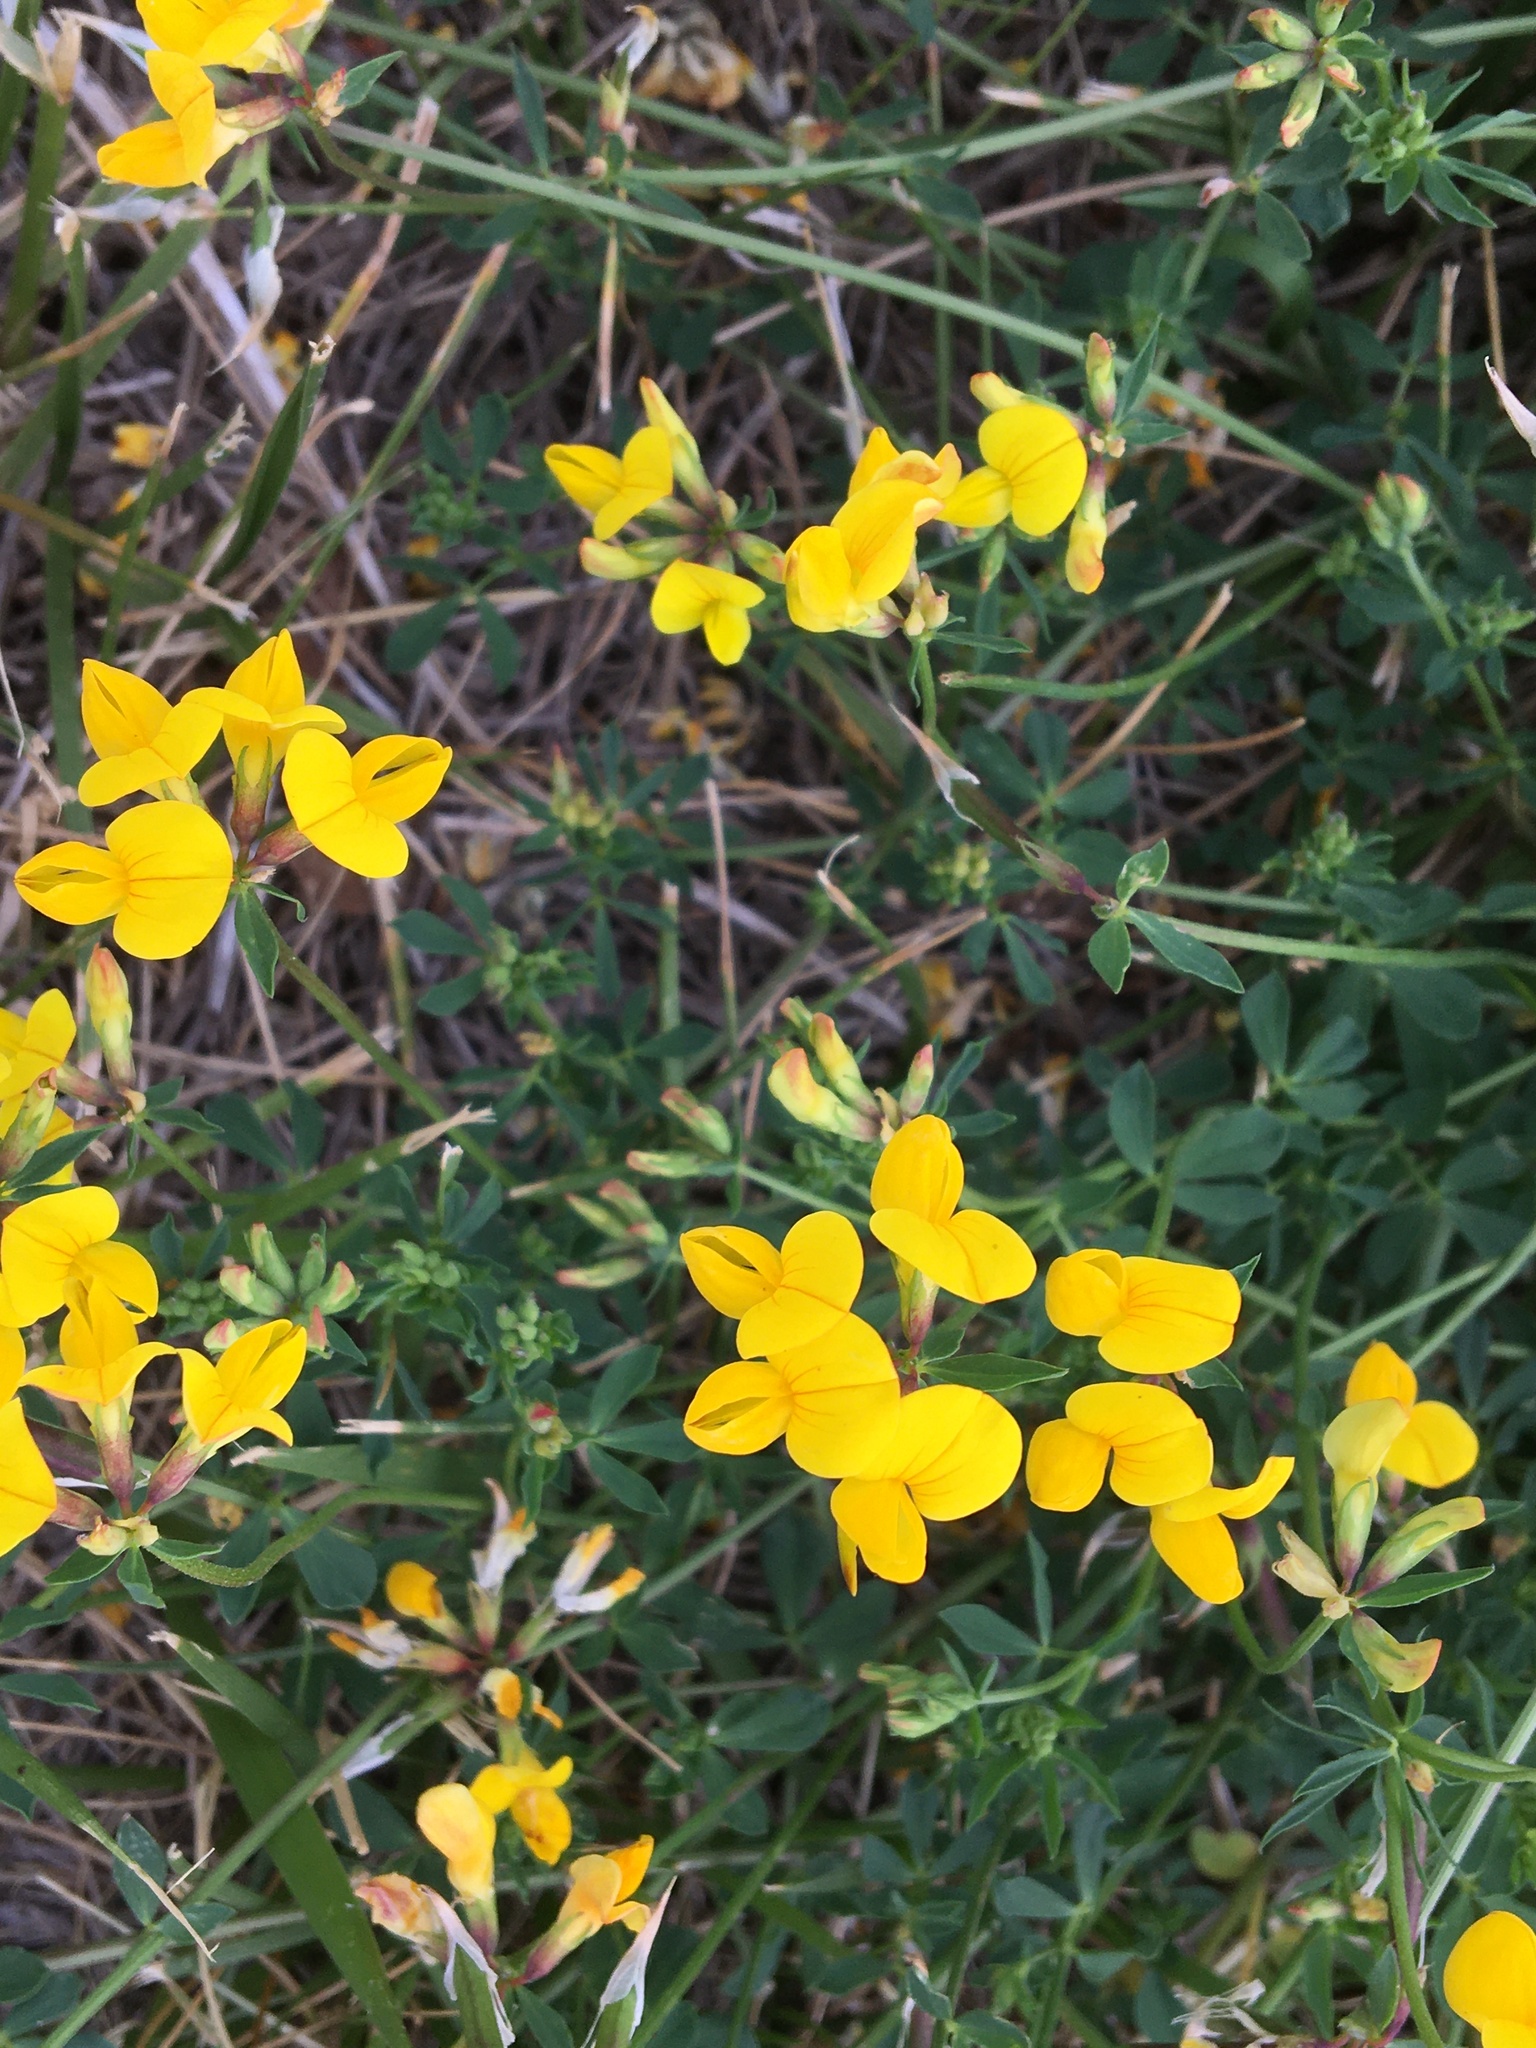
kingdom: Plantae
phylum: Tracheophyta
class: Magnoliopsida
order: Fabales
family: Fabaceae
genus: Lotus
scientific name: Lotus corniculatus
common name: Common bird's-foot-trefoil
